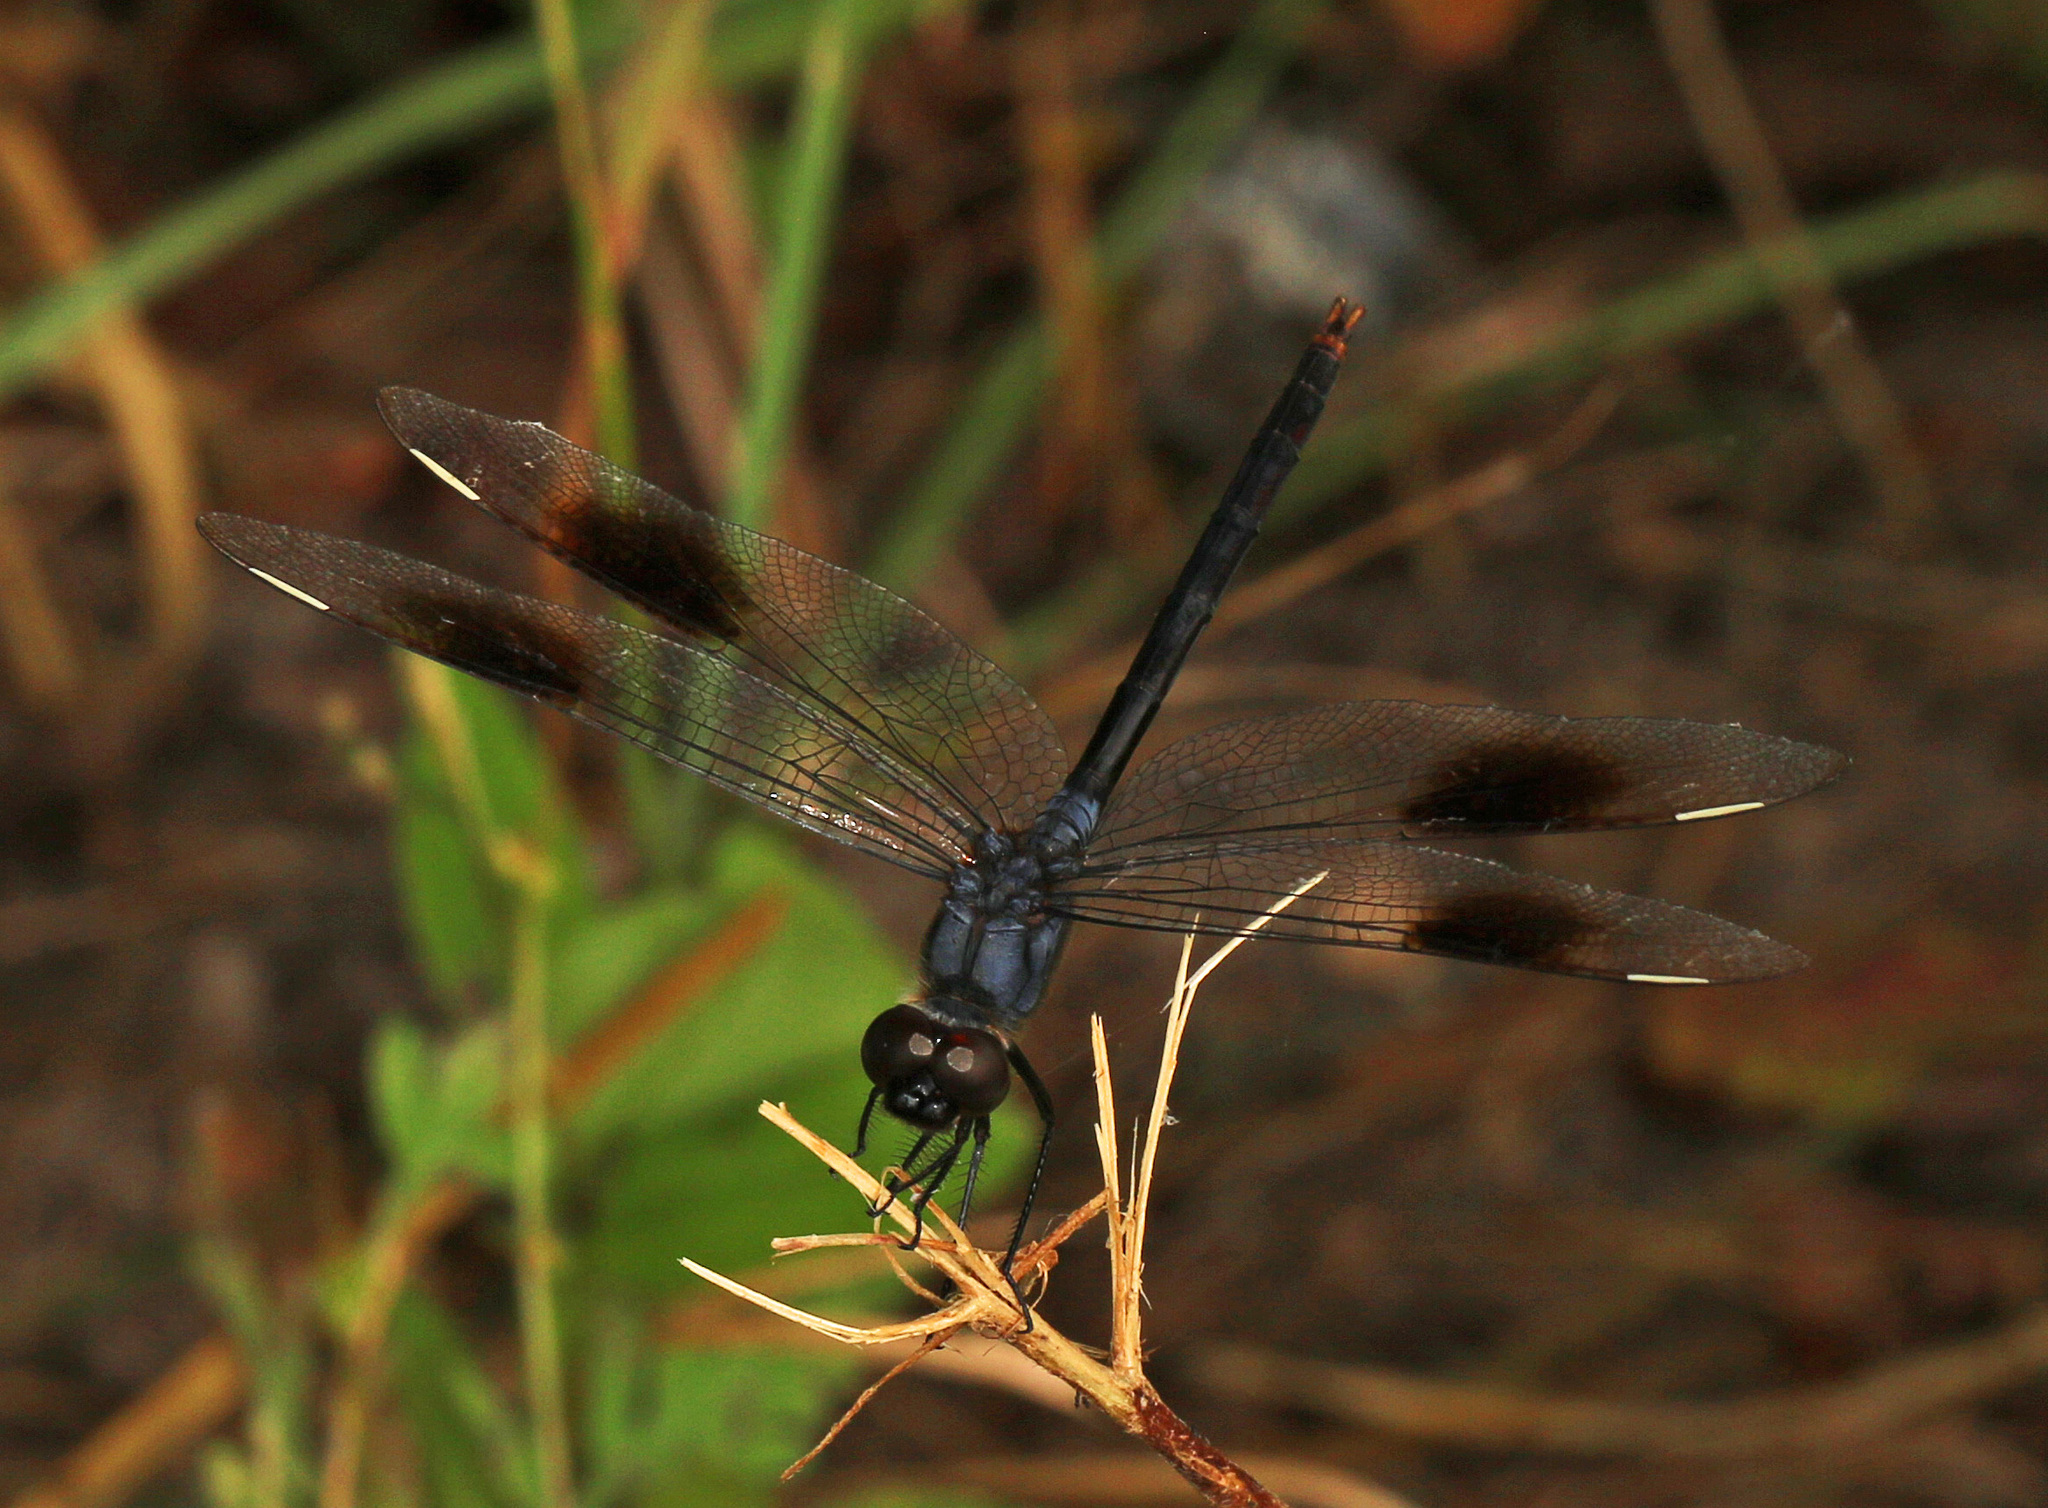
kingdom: Animalia
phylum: Arthropoda
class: Insecta
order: Odonata
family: Libellulidae
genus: Brachymesia
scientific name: Brachymesia gravida
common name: Four-spotted pennant
